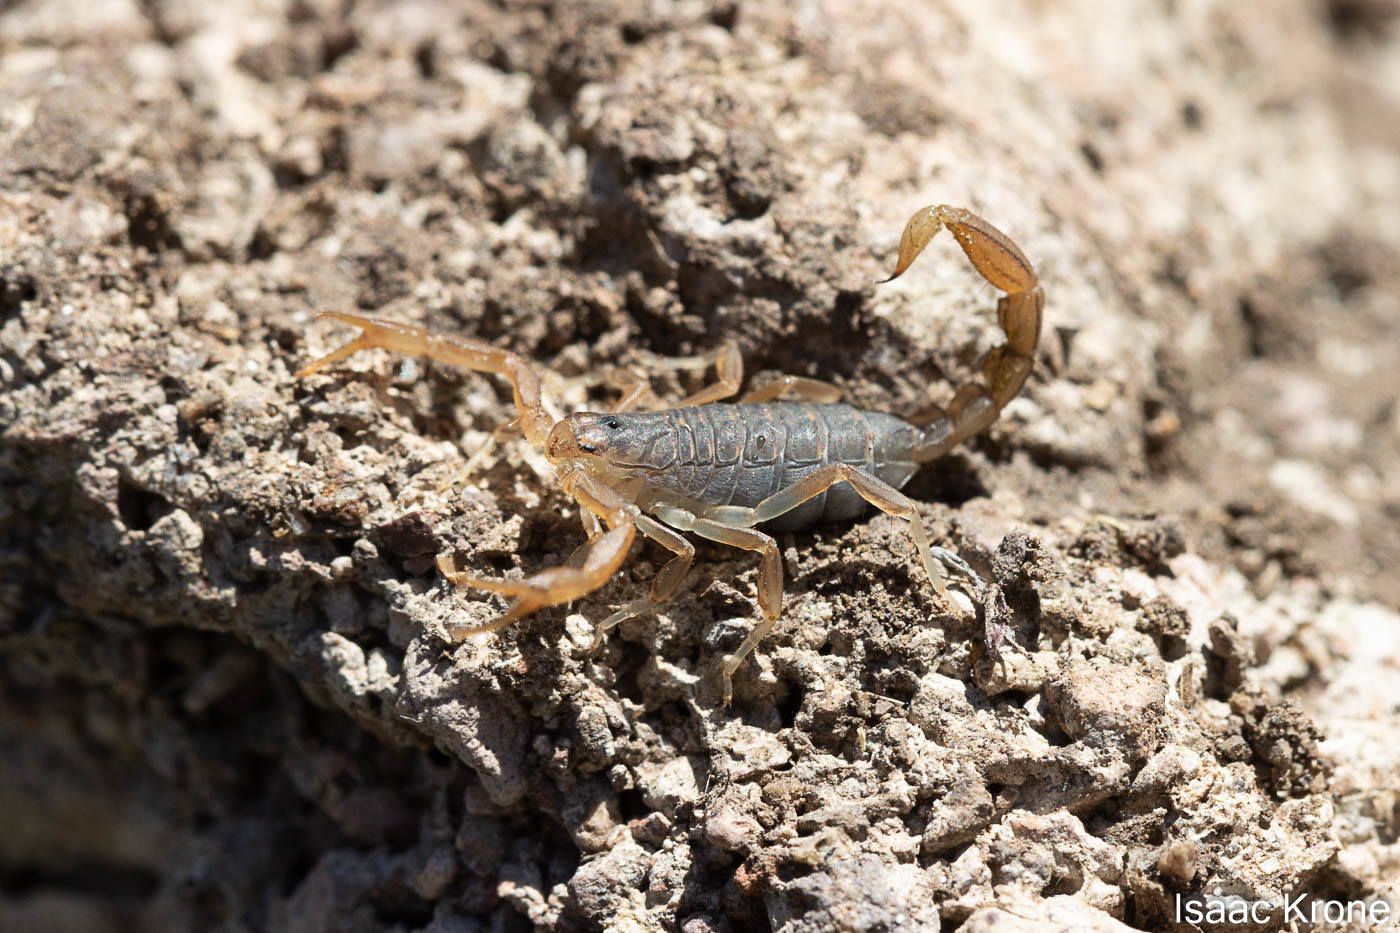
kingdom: Animalia
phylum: Arthropoda
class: Arachnida
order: Scorpiones
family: Vaejovidae
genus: Paravaejovis
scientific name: Paravaejovis spinigerus
